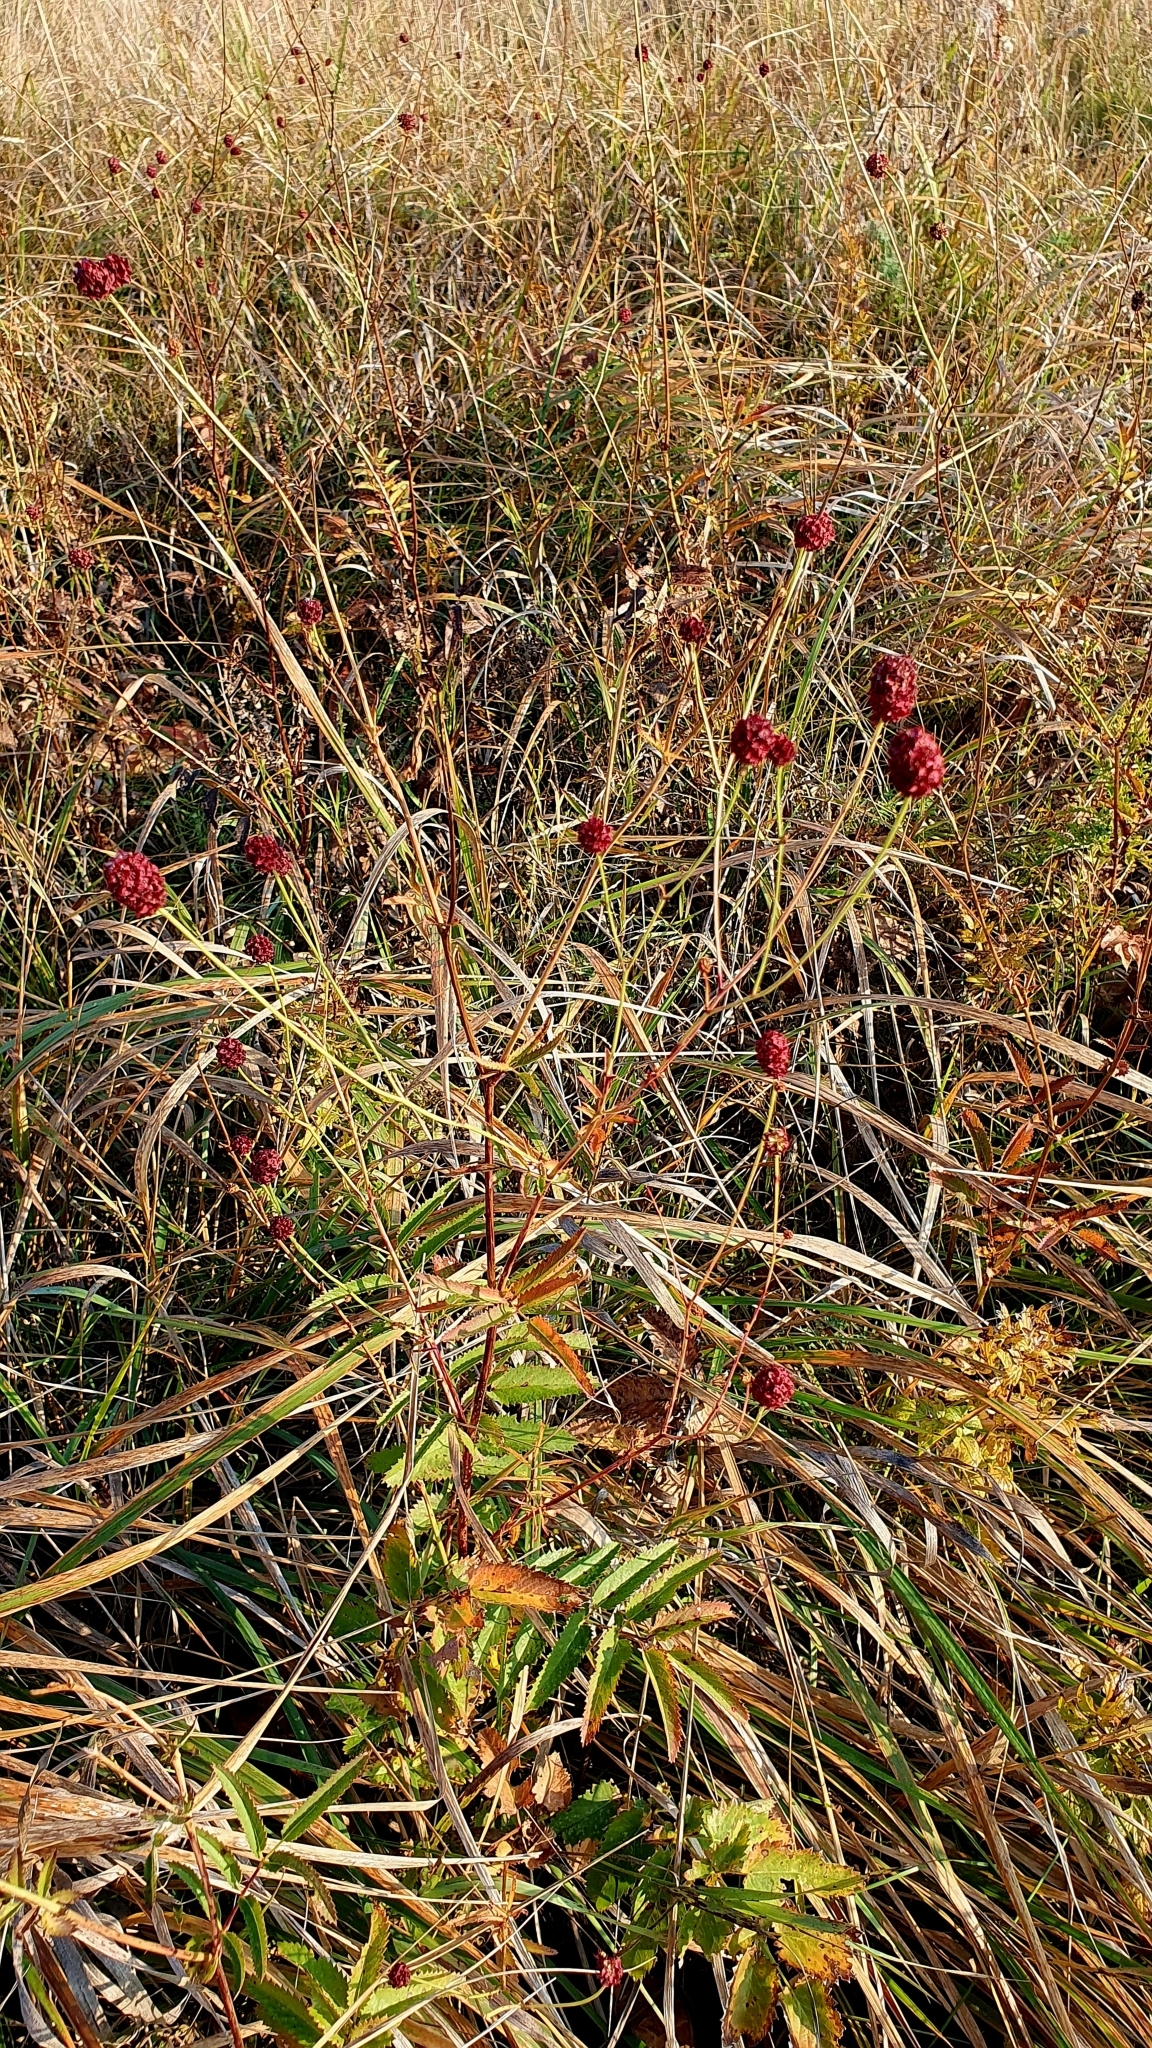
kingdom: Plantae
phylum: Tracheophyta
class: Magnoliopsida
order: Rosales
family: Rosaceae
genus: Sanguisorba
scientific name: Sanguisorba officinalis
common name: Great burnet
